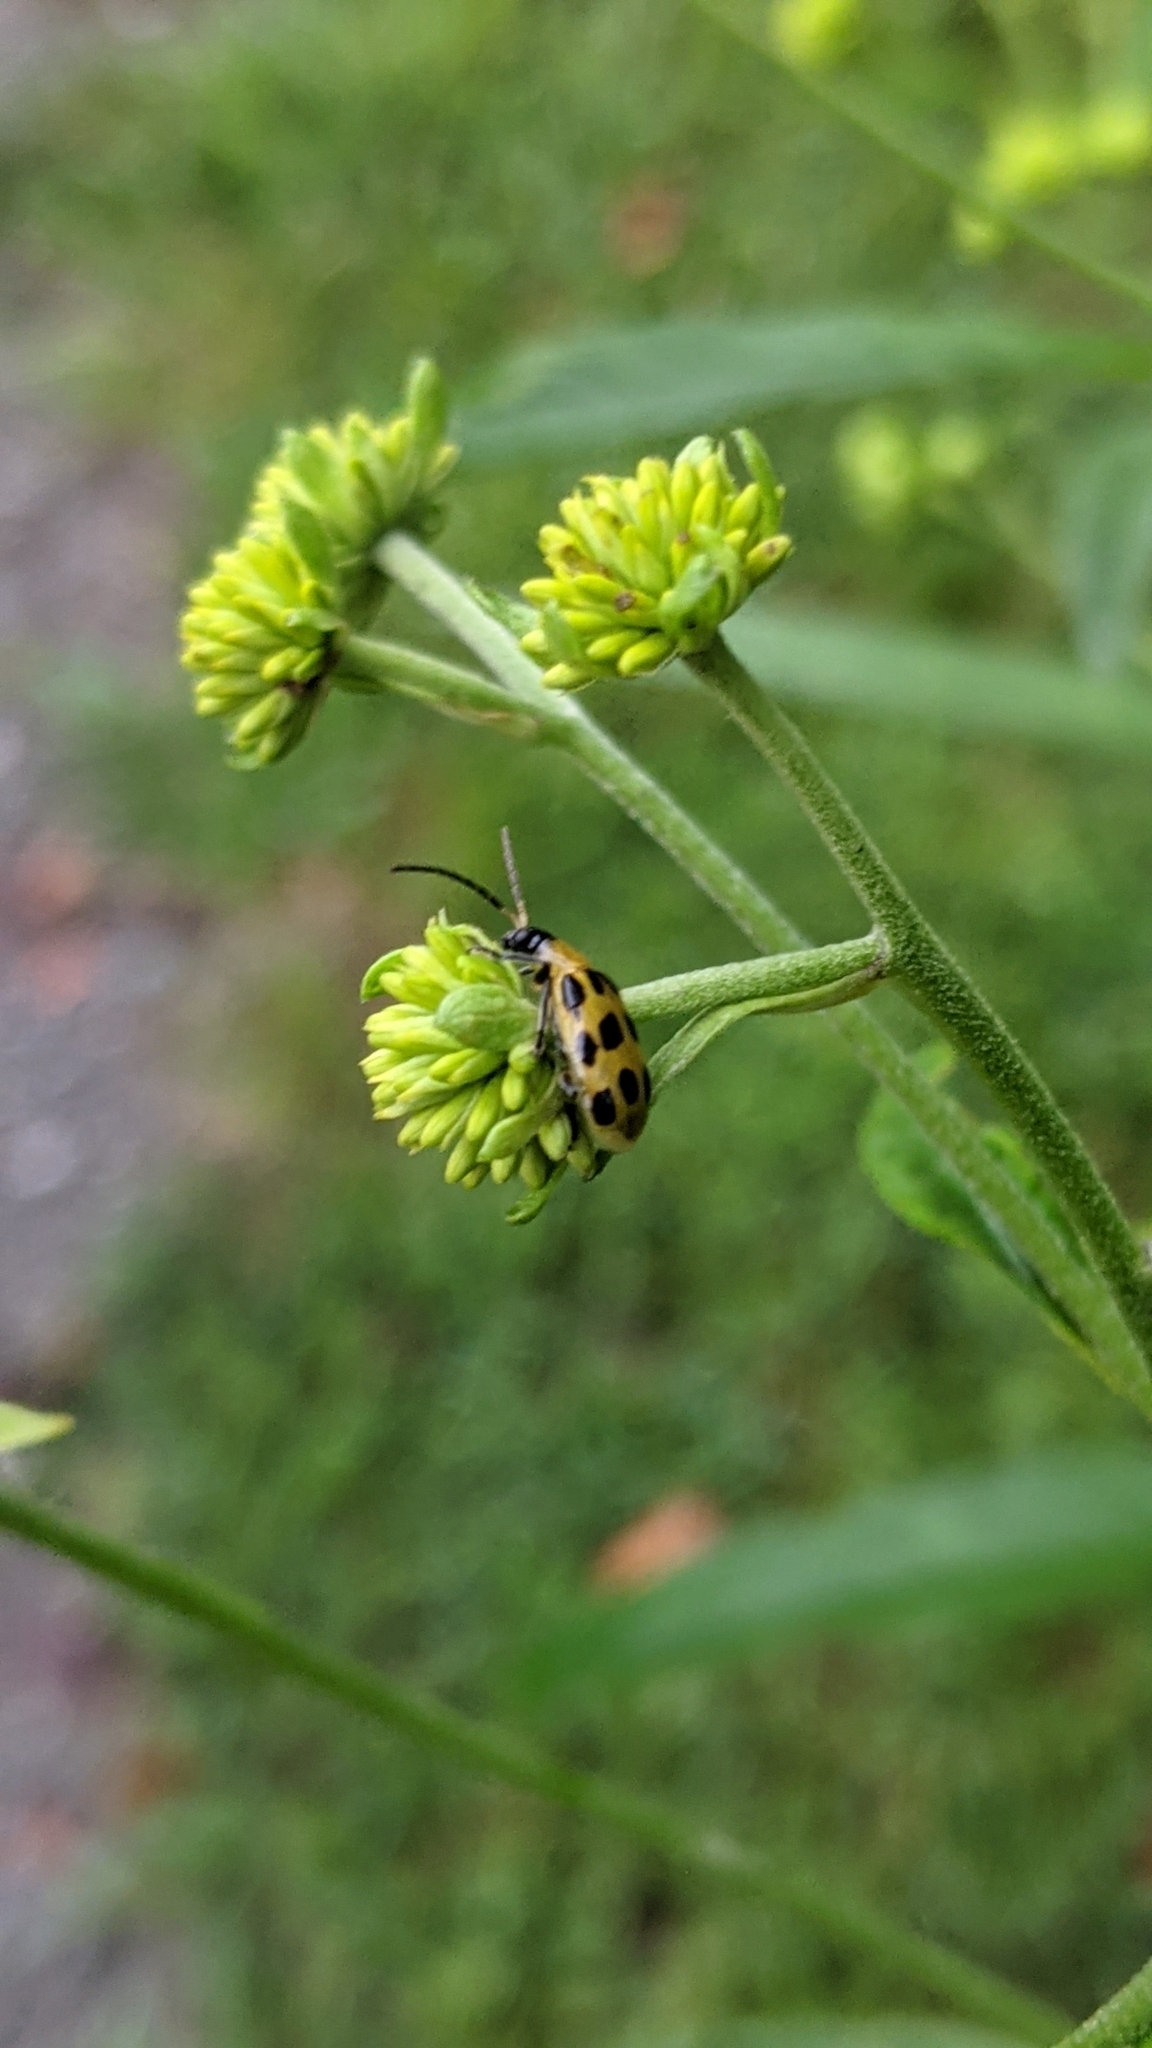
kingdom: Animalia
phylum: Arthropoda
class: Insecta
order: Coleoptera
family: Chrysomelidae
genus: Diabrotica
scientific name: Diabrotica undecimpunctata
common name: Spotted cucumber beetle
